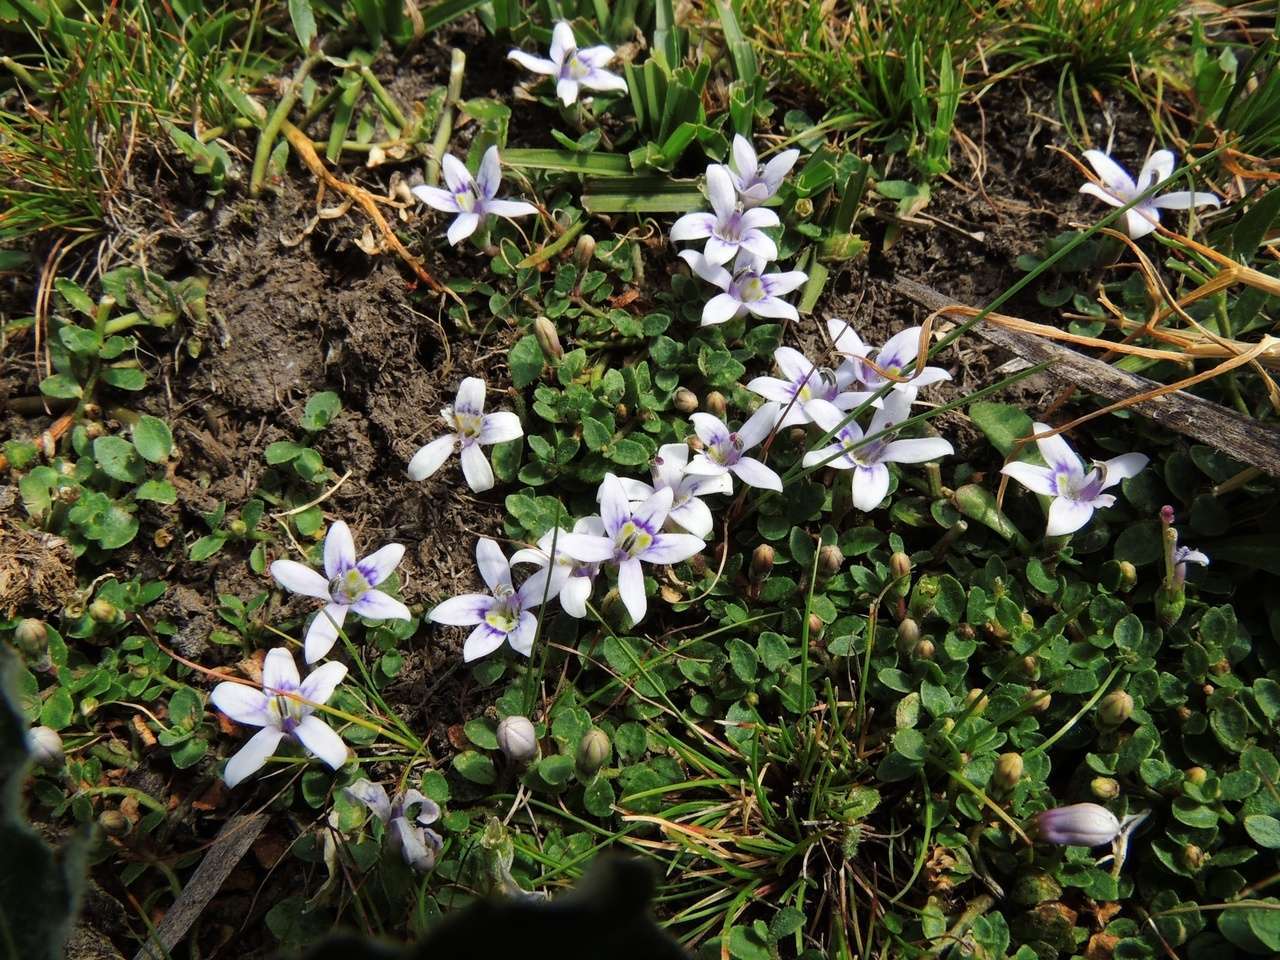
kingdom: Plantae
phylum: Tracheophyta
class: Magnoliopsida
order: Asterales
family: Campanulaceae
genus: Isotoma
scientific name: Isotoma fluviatilis
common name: Isotoma
